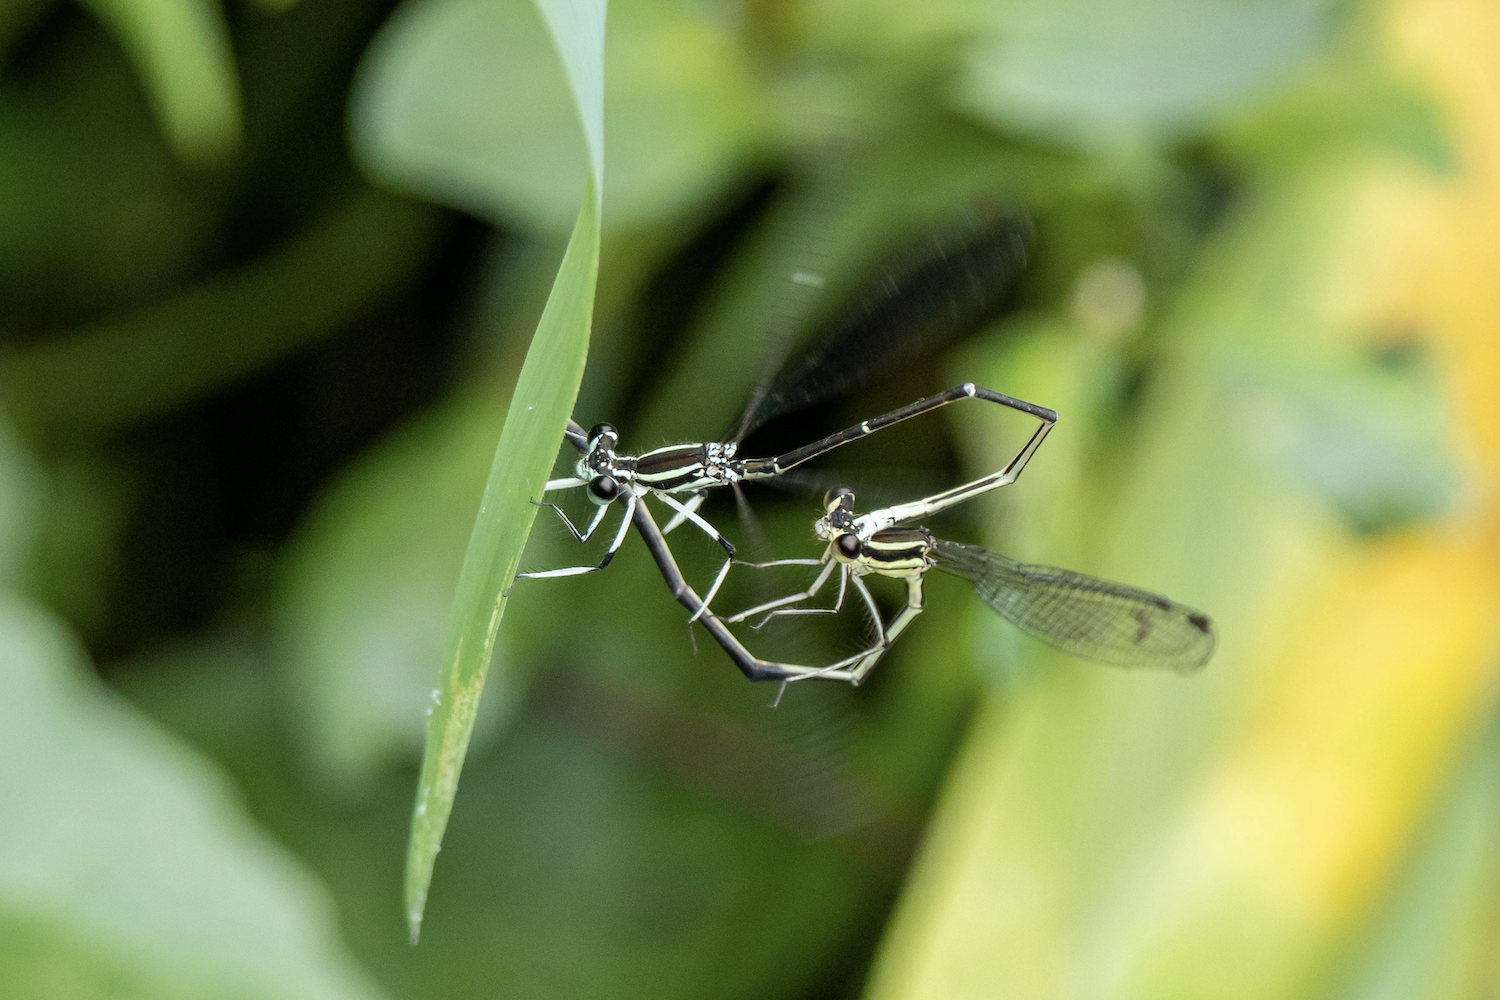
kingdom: Animalia
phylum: Arthropoda
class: Insecta
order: Odonata
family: Platycnemididae
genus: Pseudocopera
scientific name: Pseudocopera ciliata
